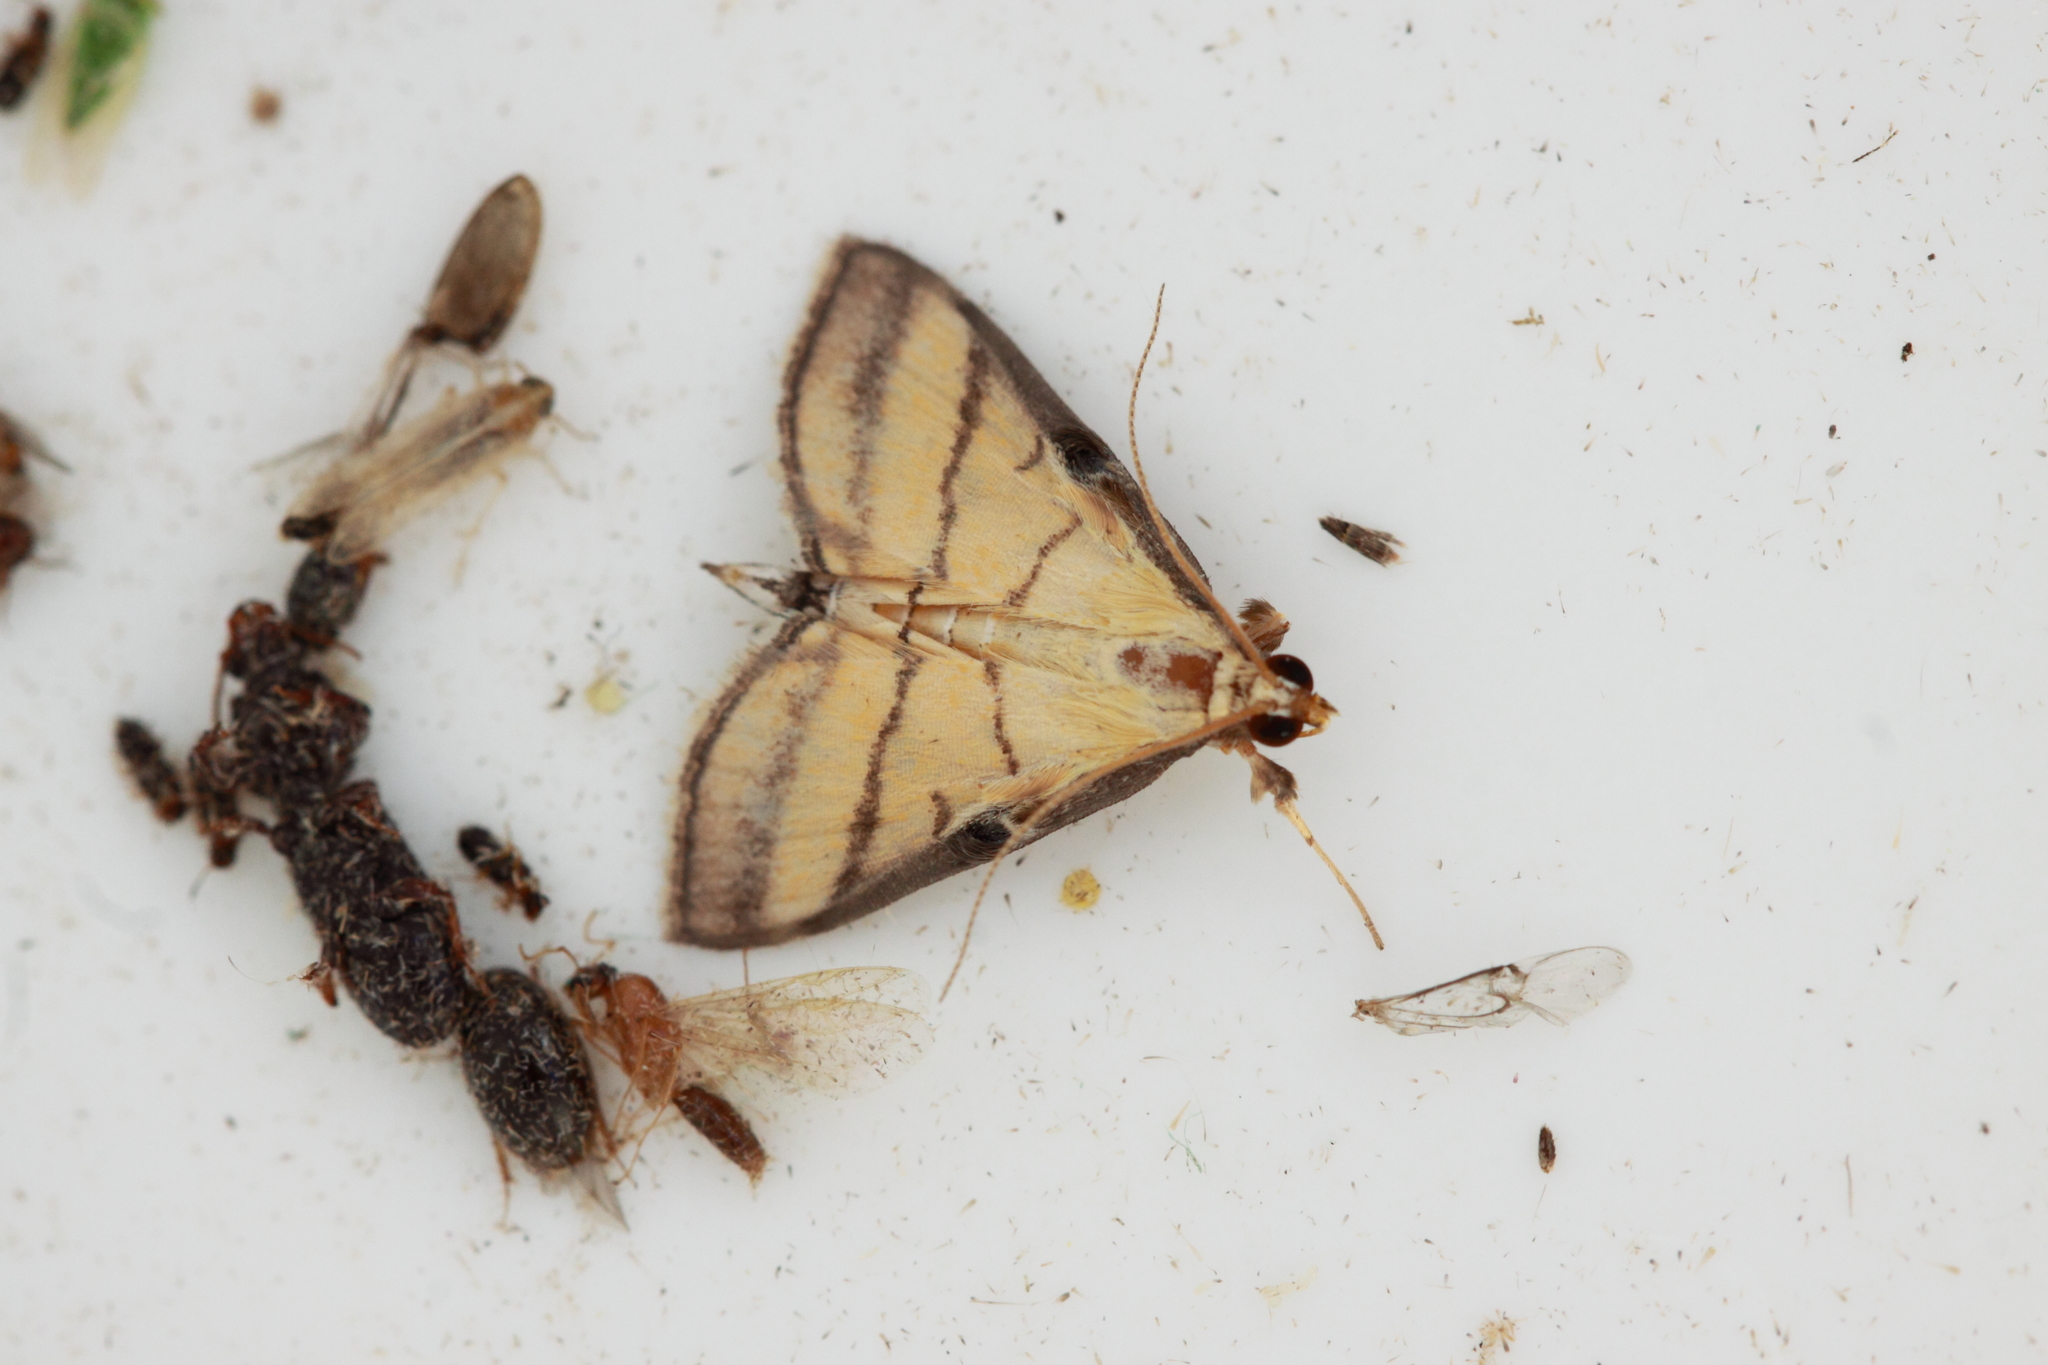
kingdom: Animalia
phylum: Arthropoda
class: Insecta
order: Lepidoptera
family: Crambidae
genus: Cnaphalocrocis
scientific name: Cnaphalocrocis medinalis
